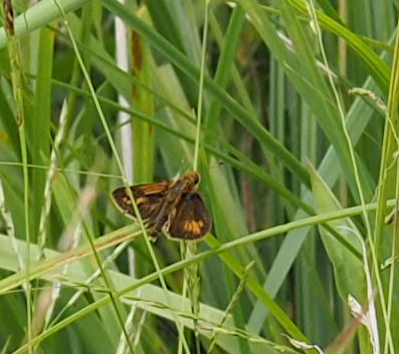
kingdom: Animalia
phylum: Arthropoda
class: Insecta
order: Lepidoptera
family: Hesperiidae
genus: Polites
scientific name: Polites coras
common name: Peck's skipper
